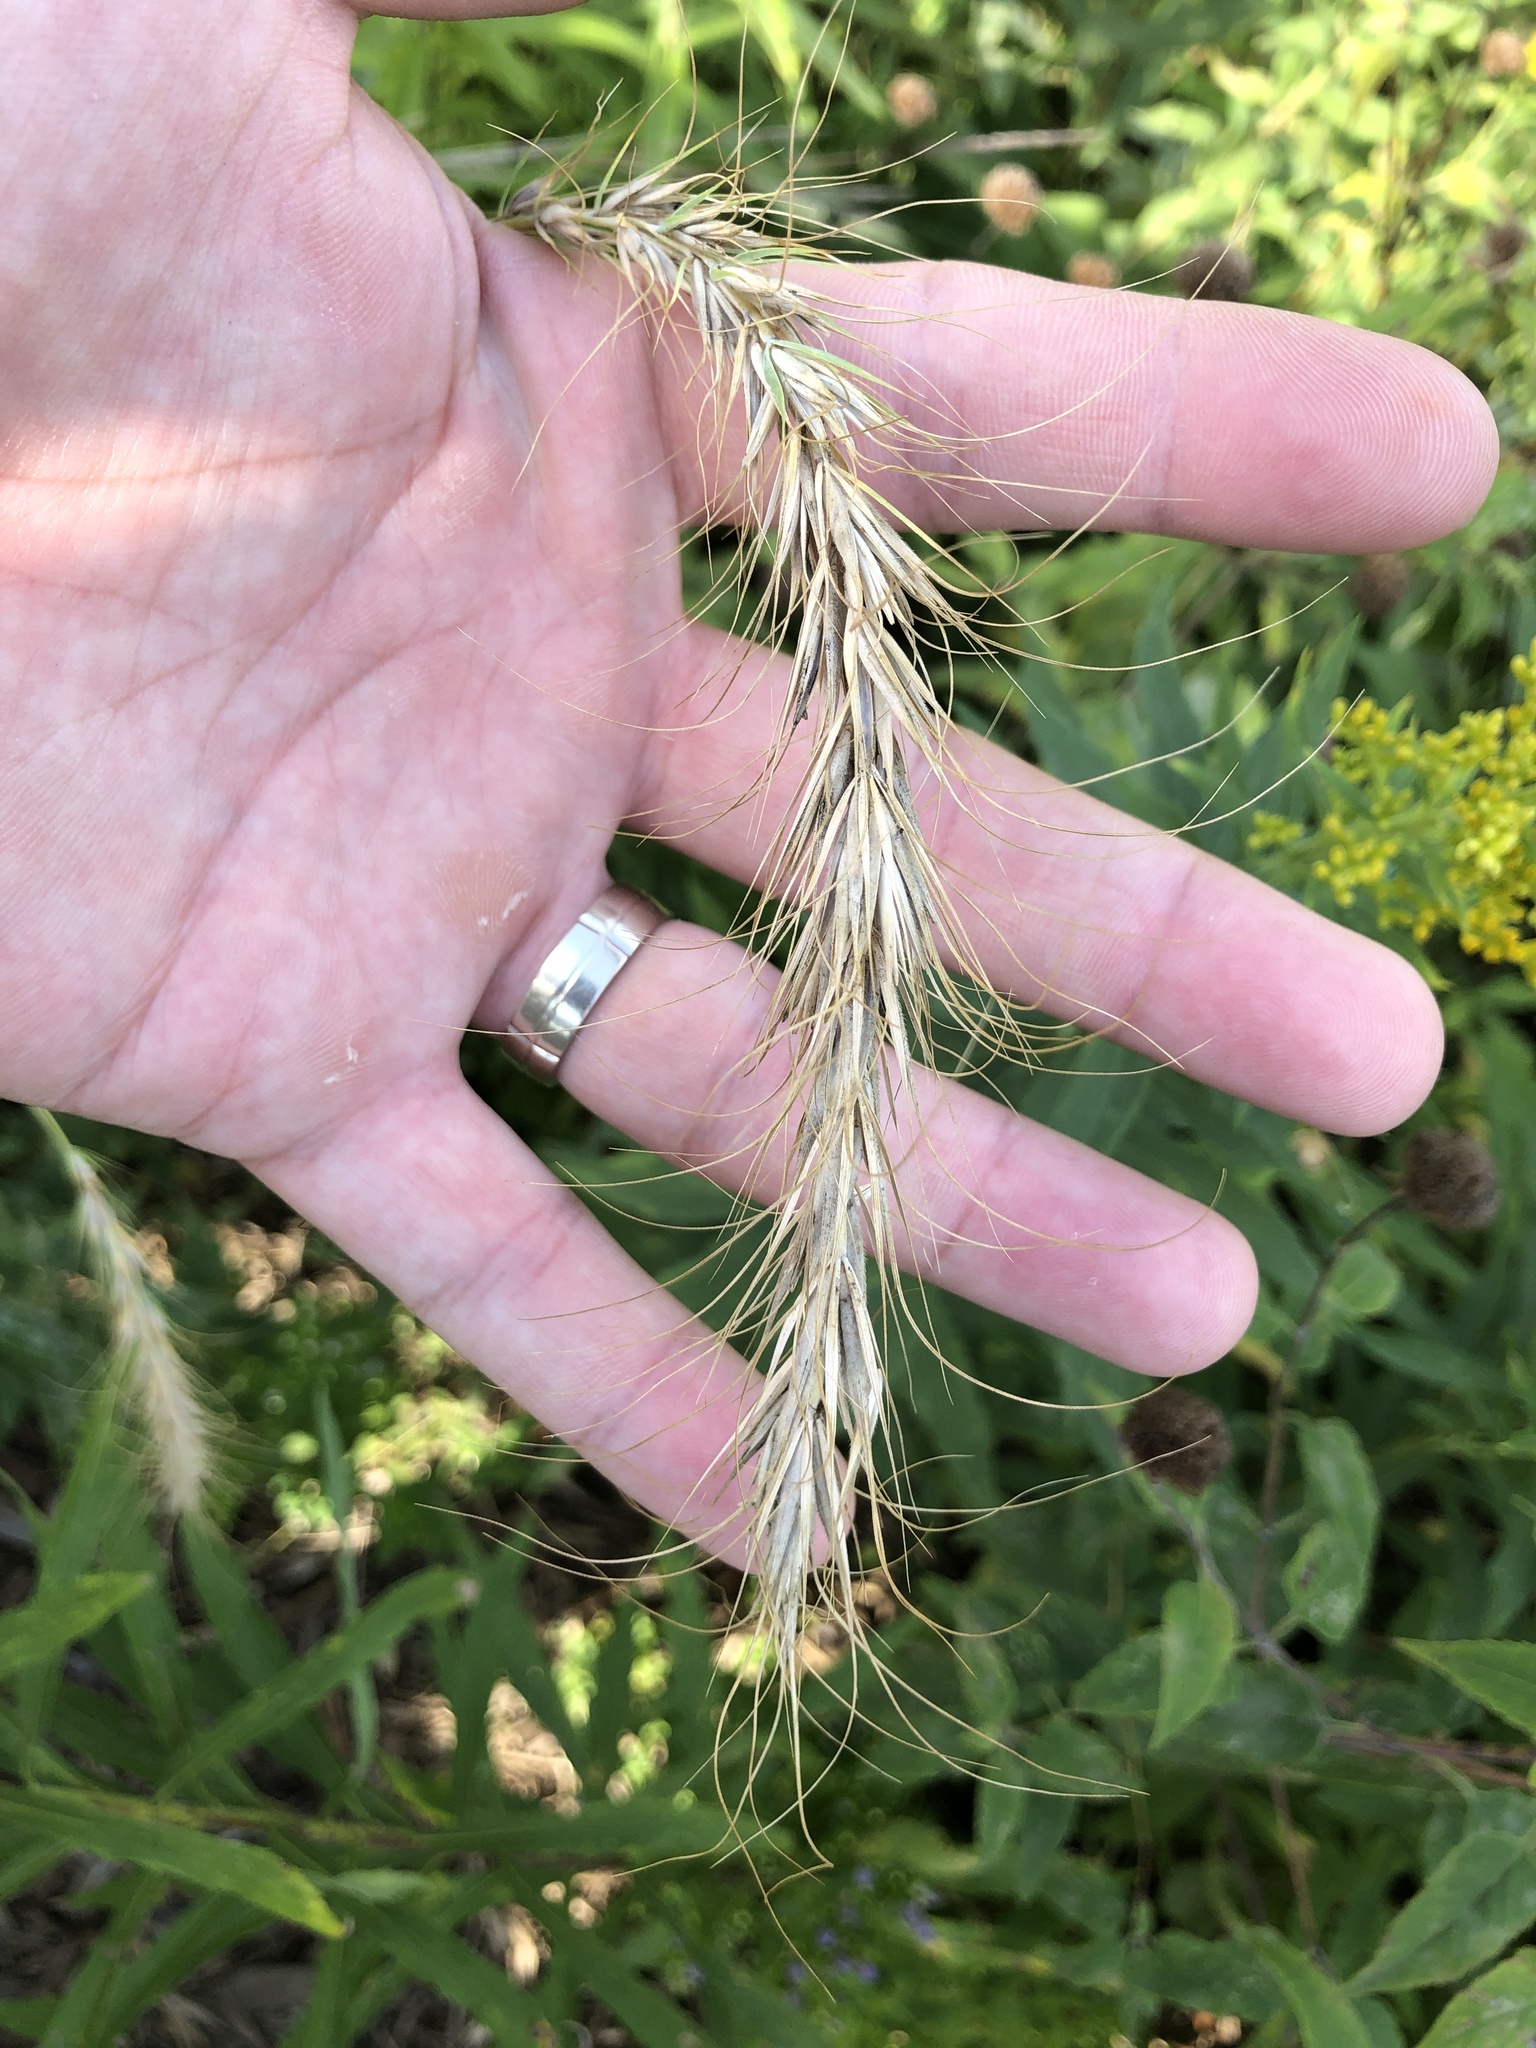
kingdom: Plantae
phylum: Tracheophyta
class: Liliopsida
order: Poales
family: Poaceae
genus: Elymus
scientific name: Elymus canadensis
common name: Canada wild rye
